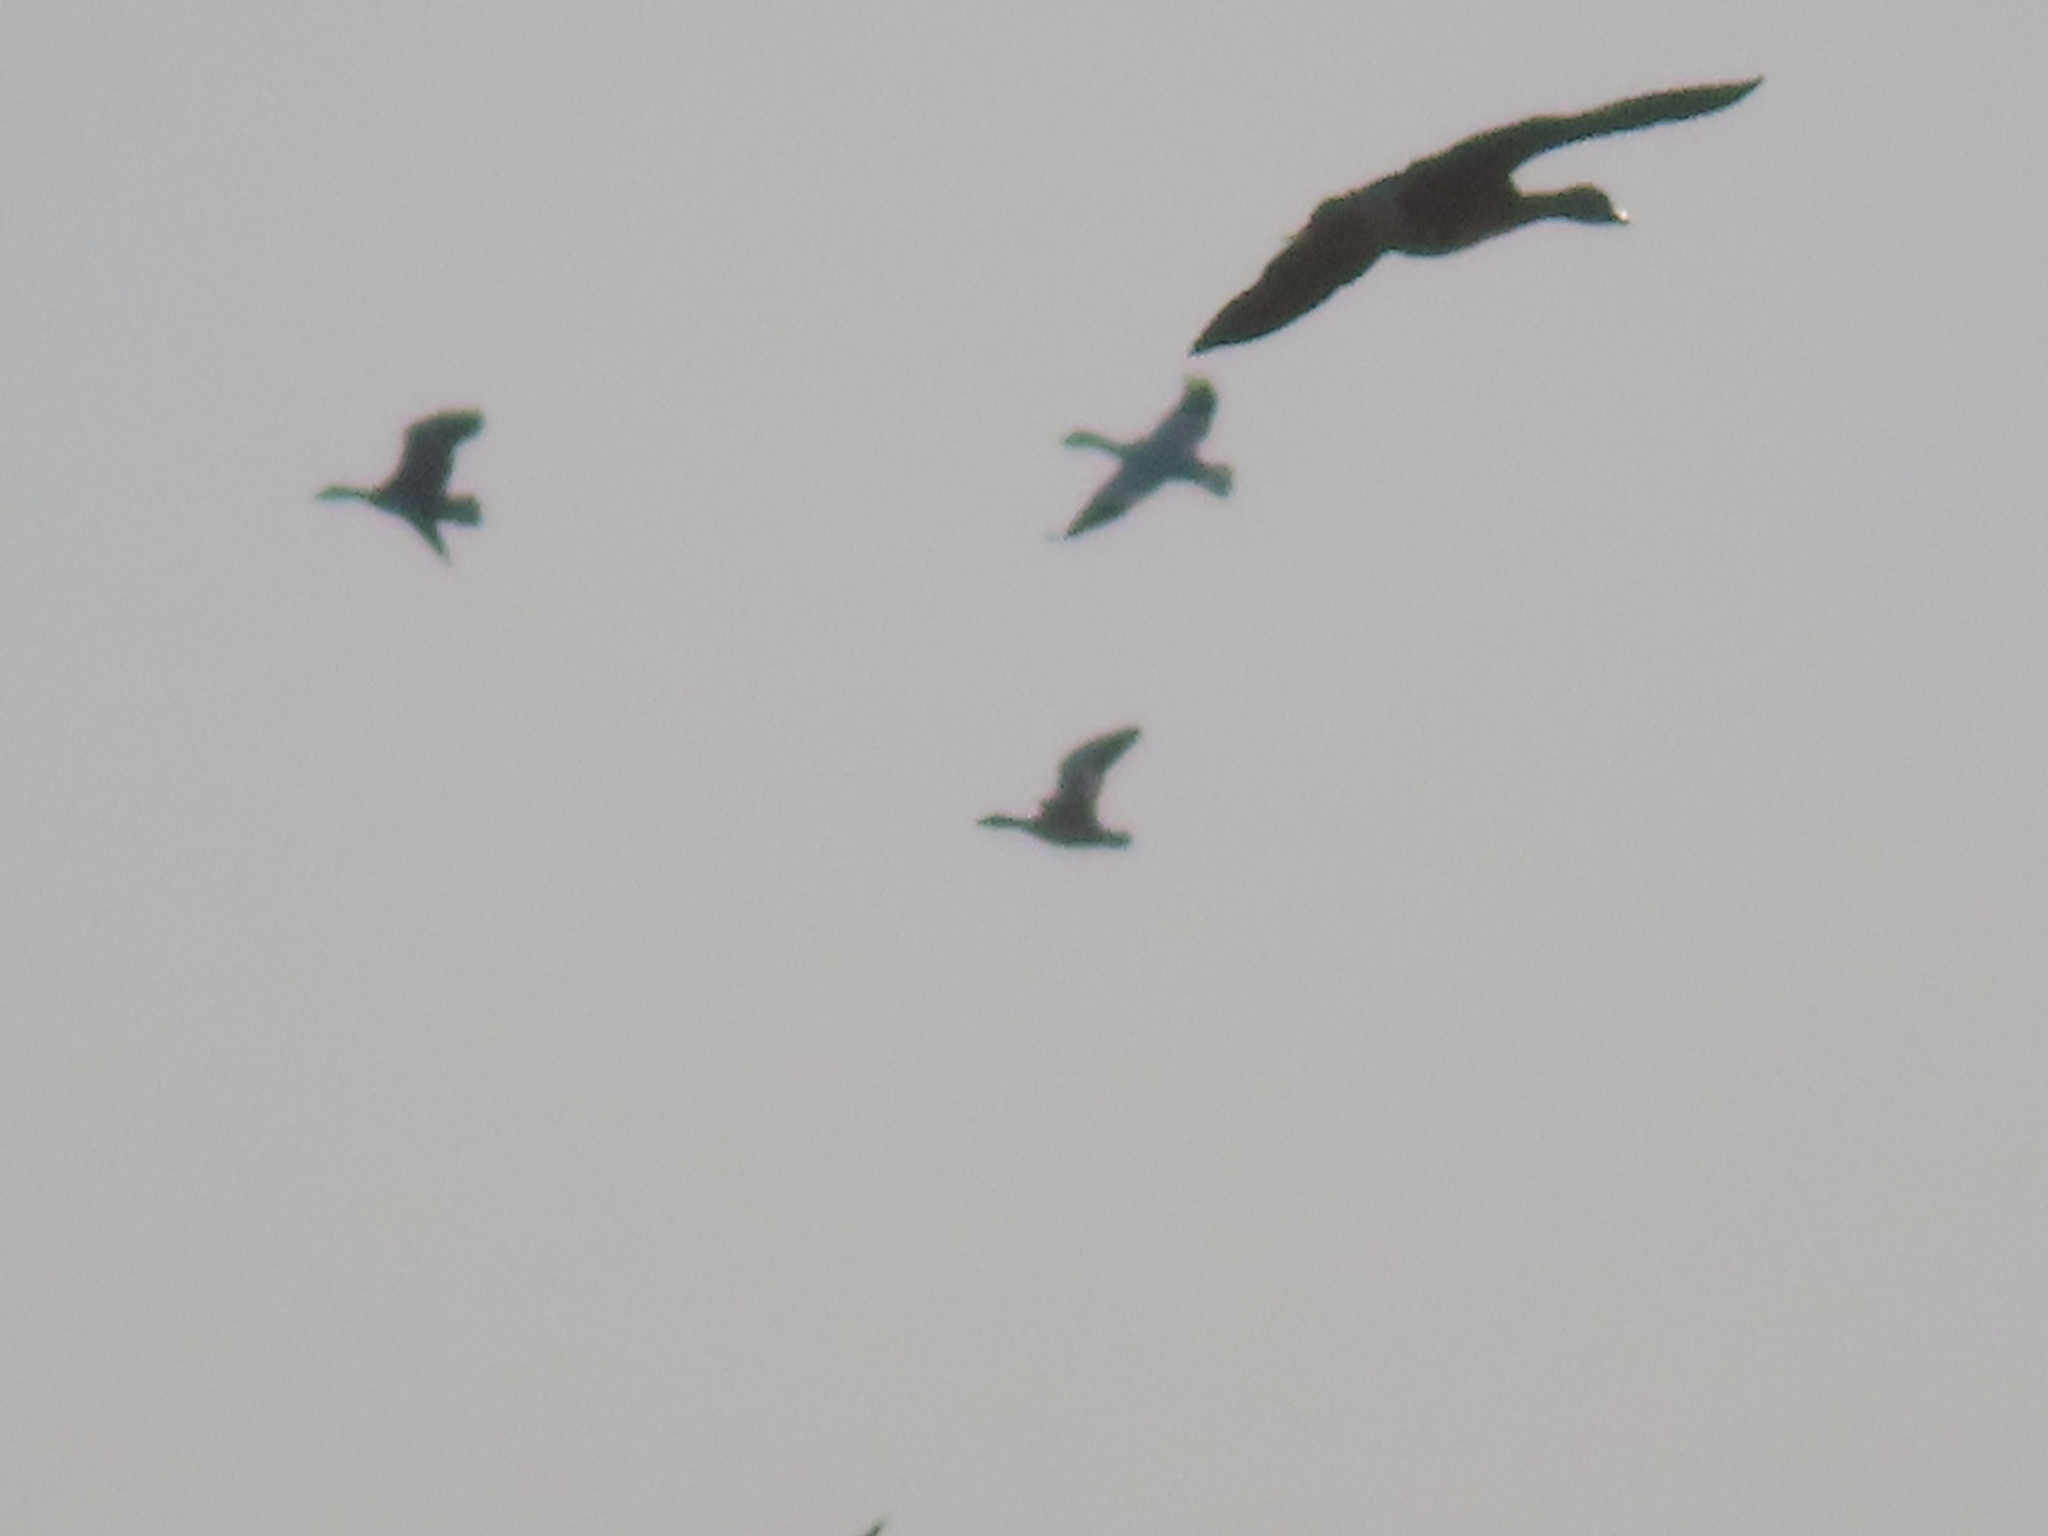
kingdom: Animalia
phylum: Chordata
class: Aves
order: Anseriformes
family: Anatidae
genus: Anser
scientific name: Anser caerulescens
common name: Snow goose
